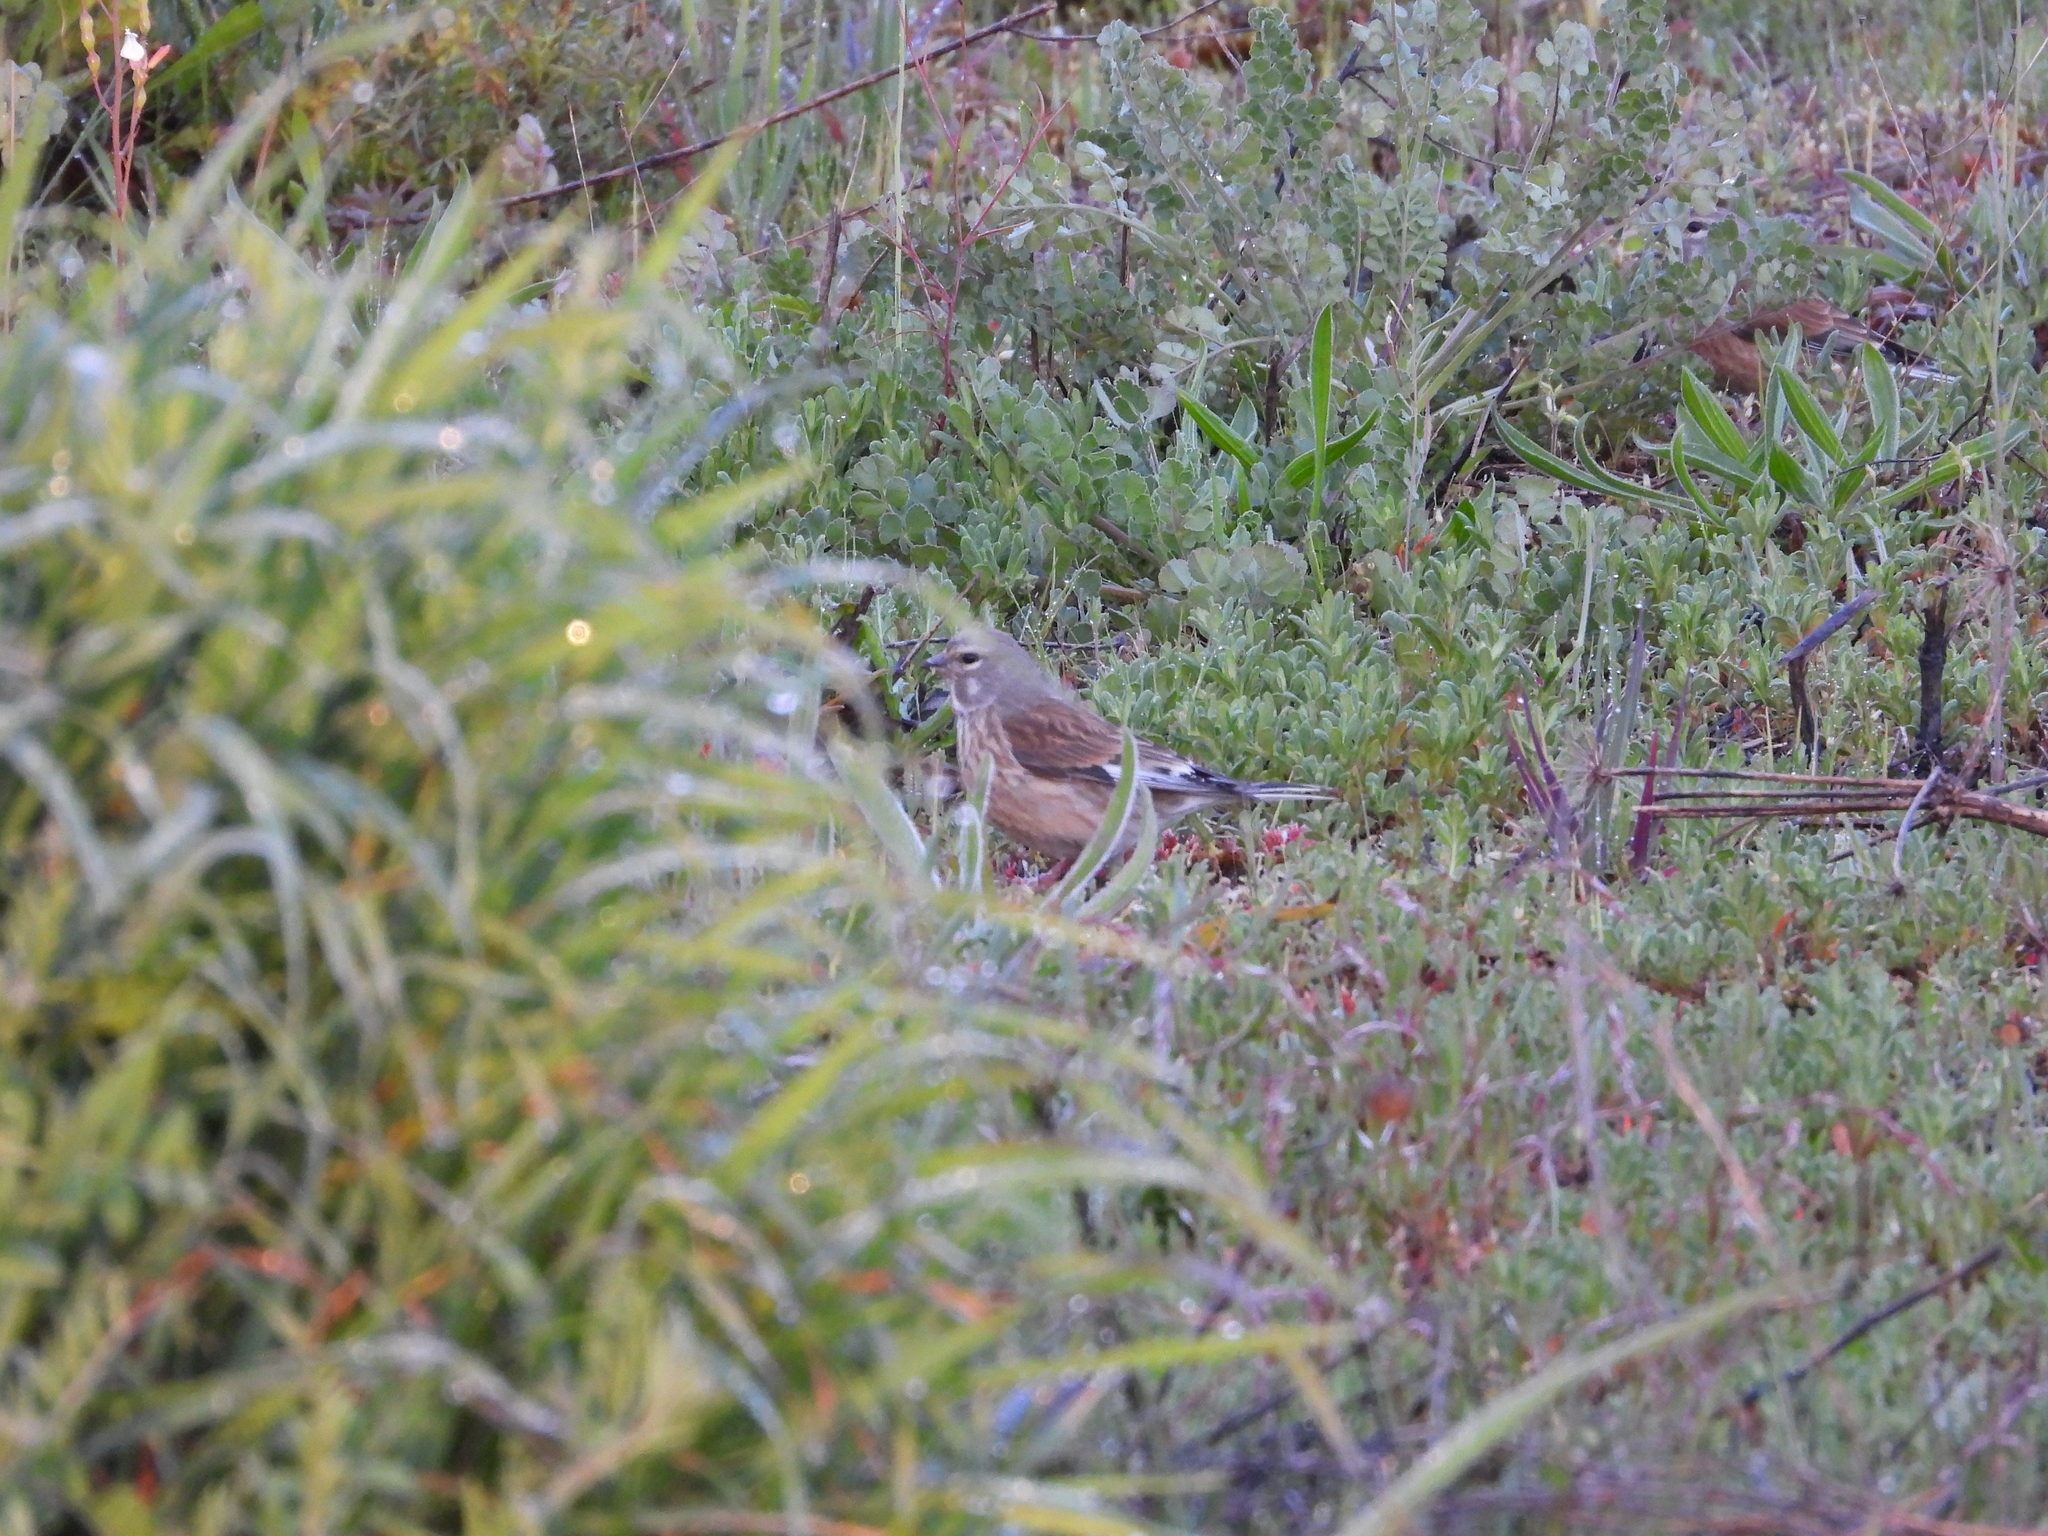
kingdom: Animalia
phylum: Chordata
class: Aves
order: Passeriformes
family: Fringillidae
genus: Linaria
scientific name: Linaria cannabina
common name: Common linnet
